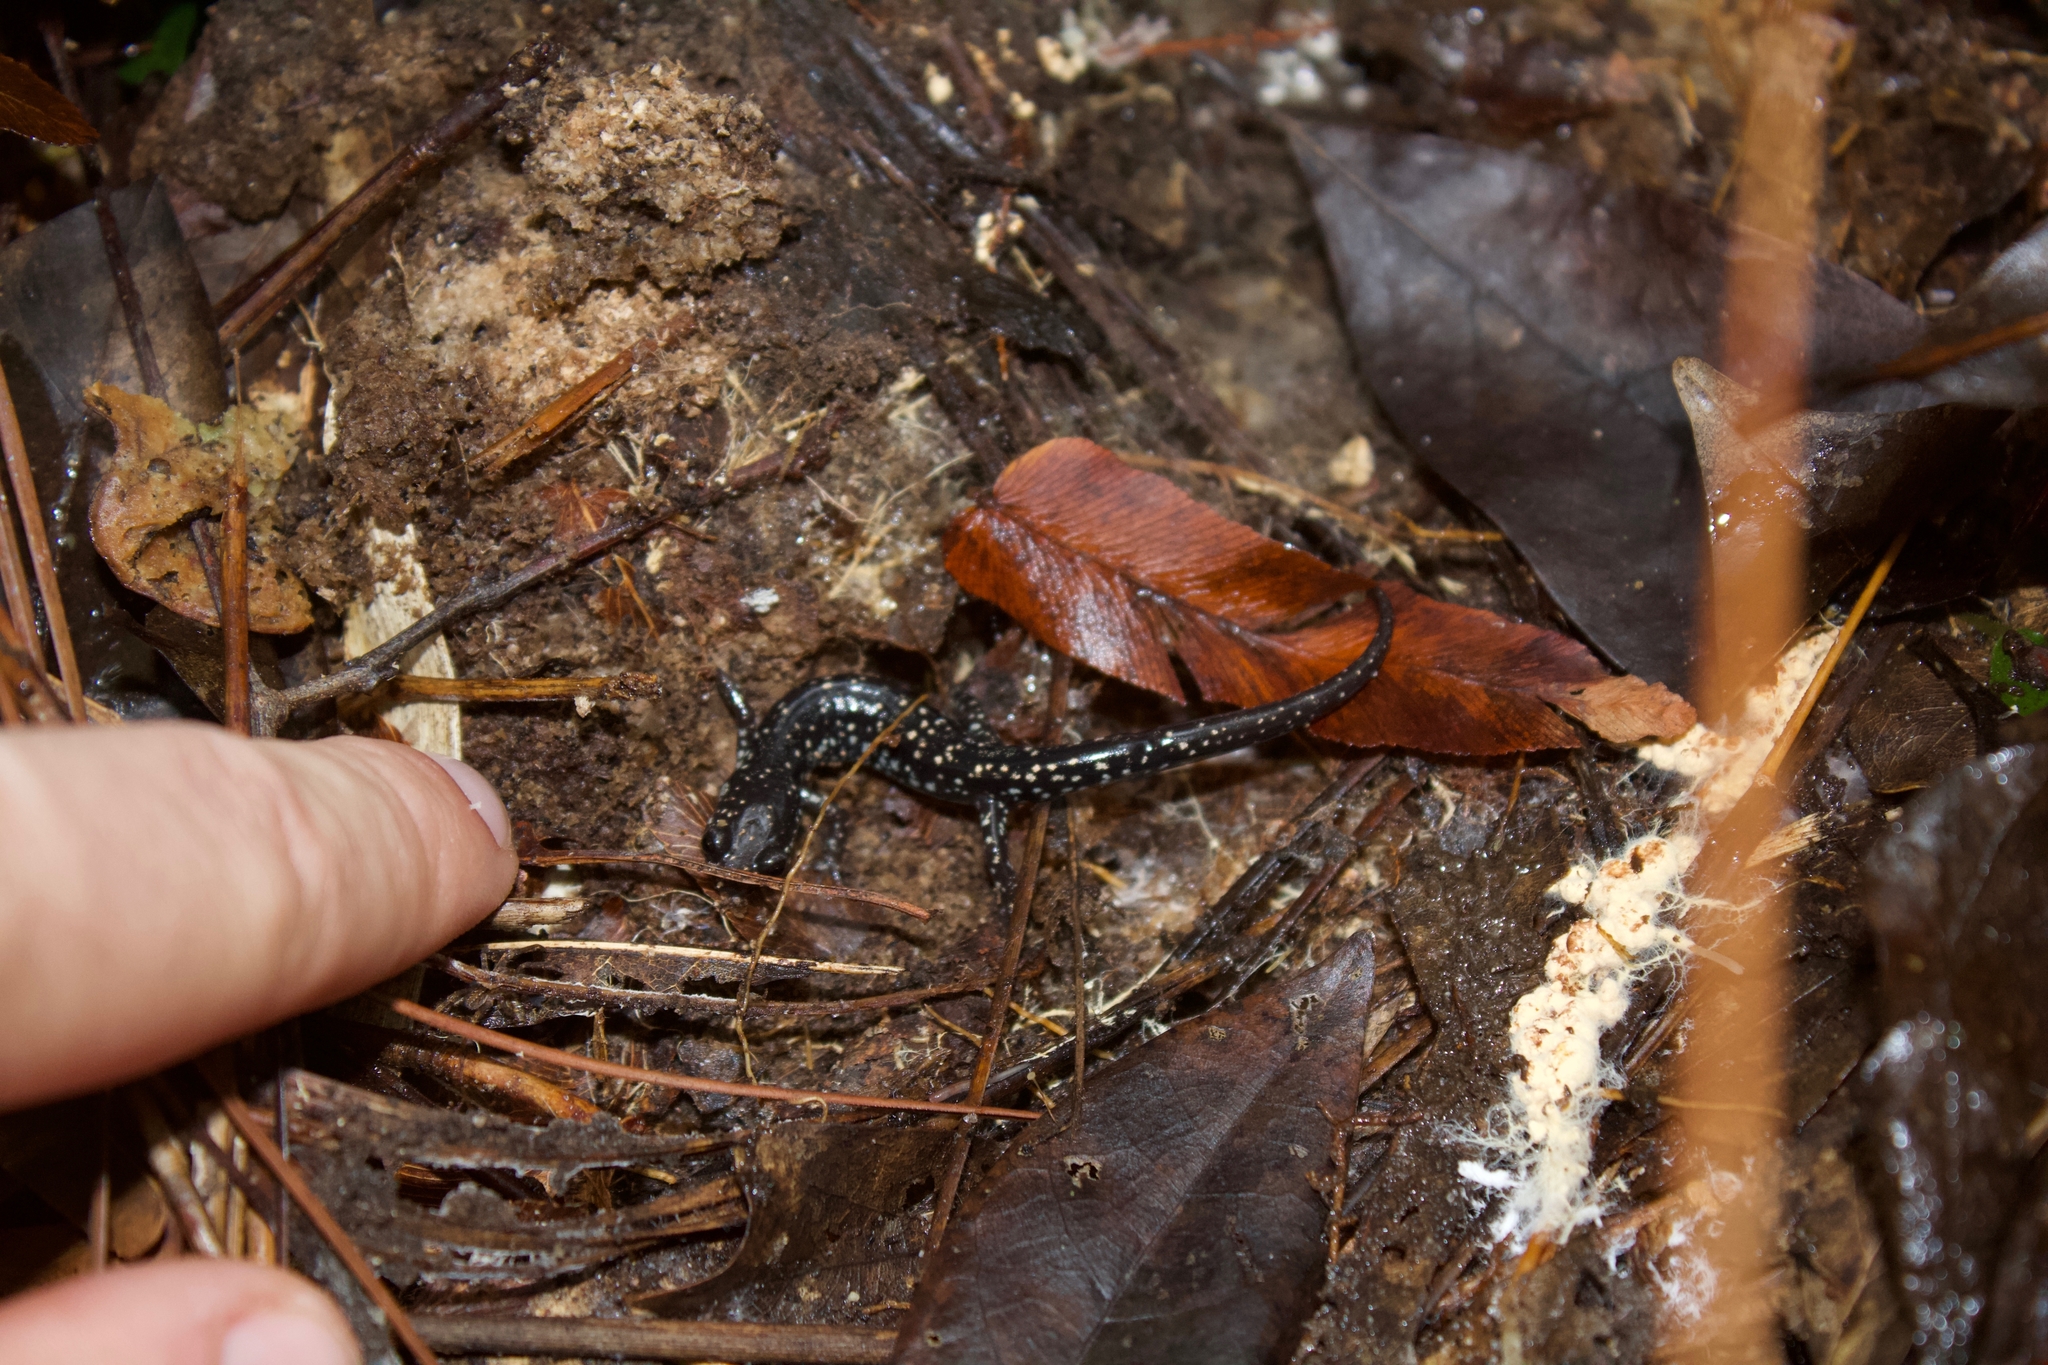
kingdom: Animalia
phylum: Chordata
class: Amphibia
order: Caudata
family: Plethodontidae
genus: Plethodon
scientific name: Plethodon mississippi
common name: Mississippi slimy salamander
